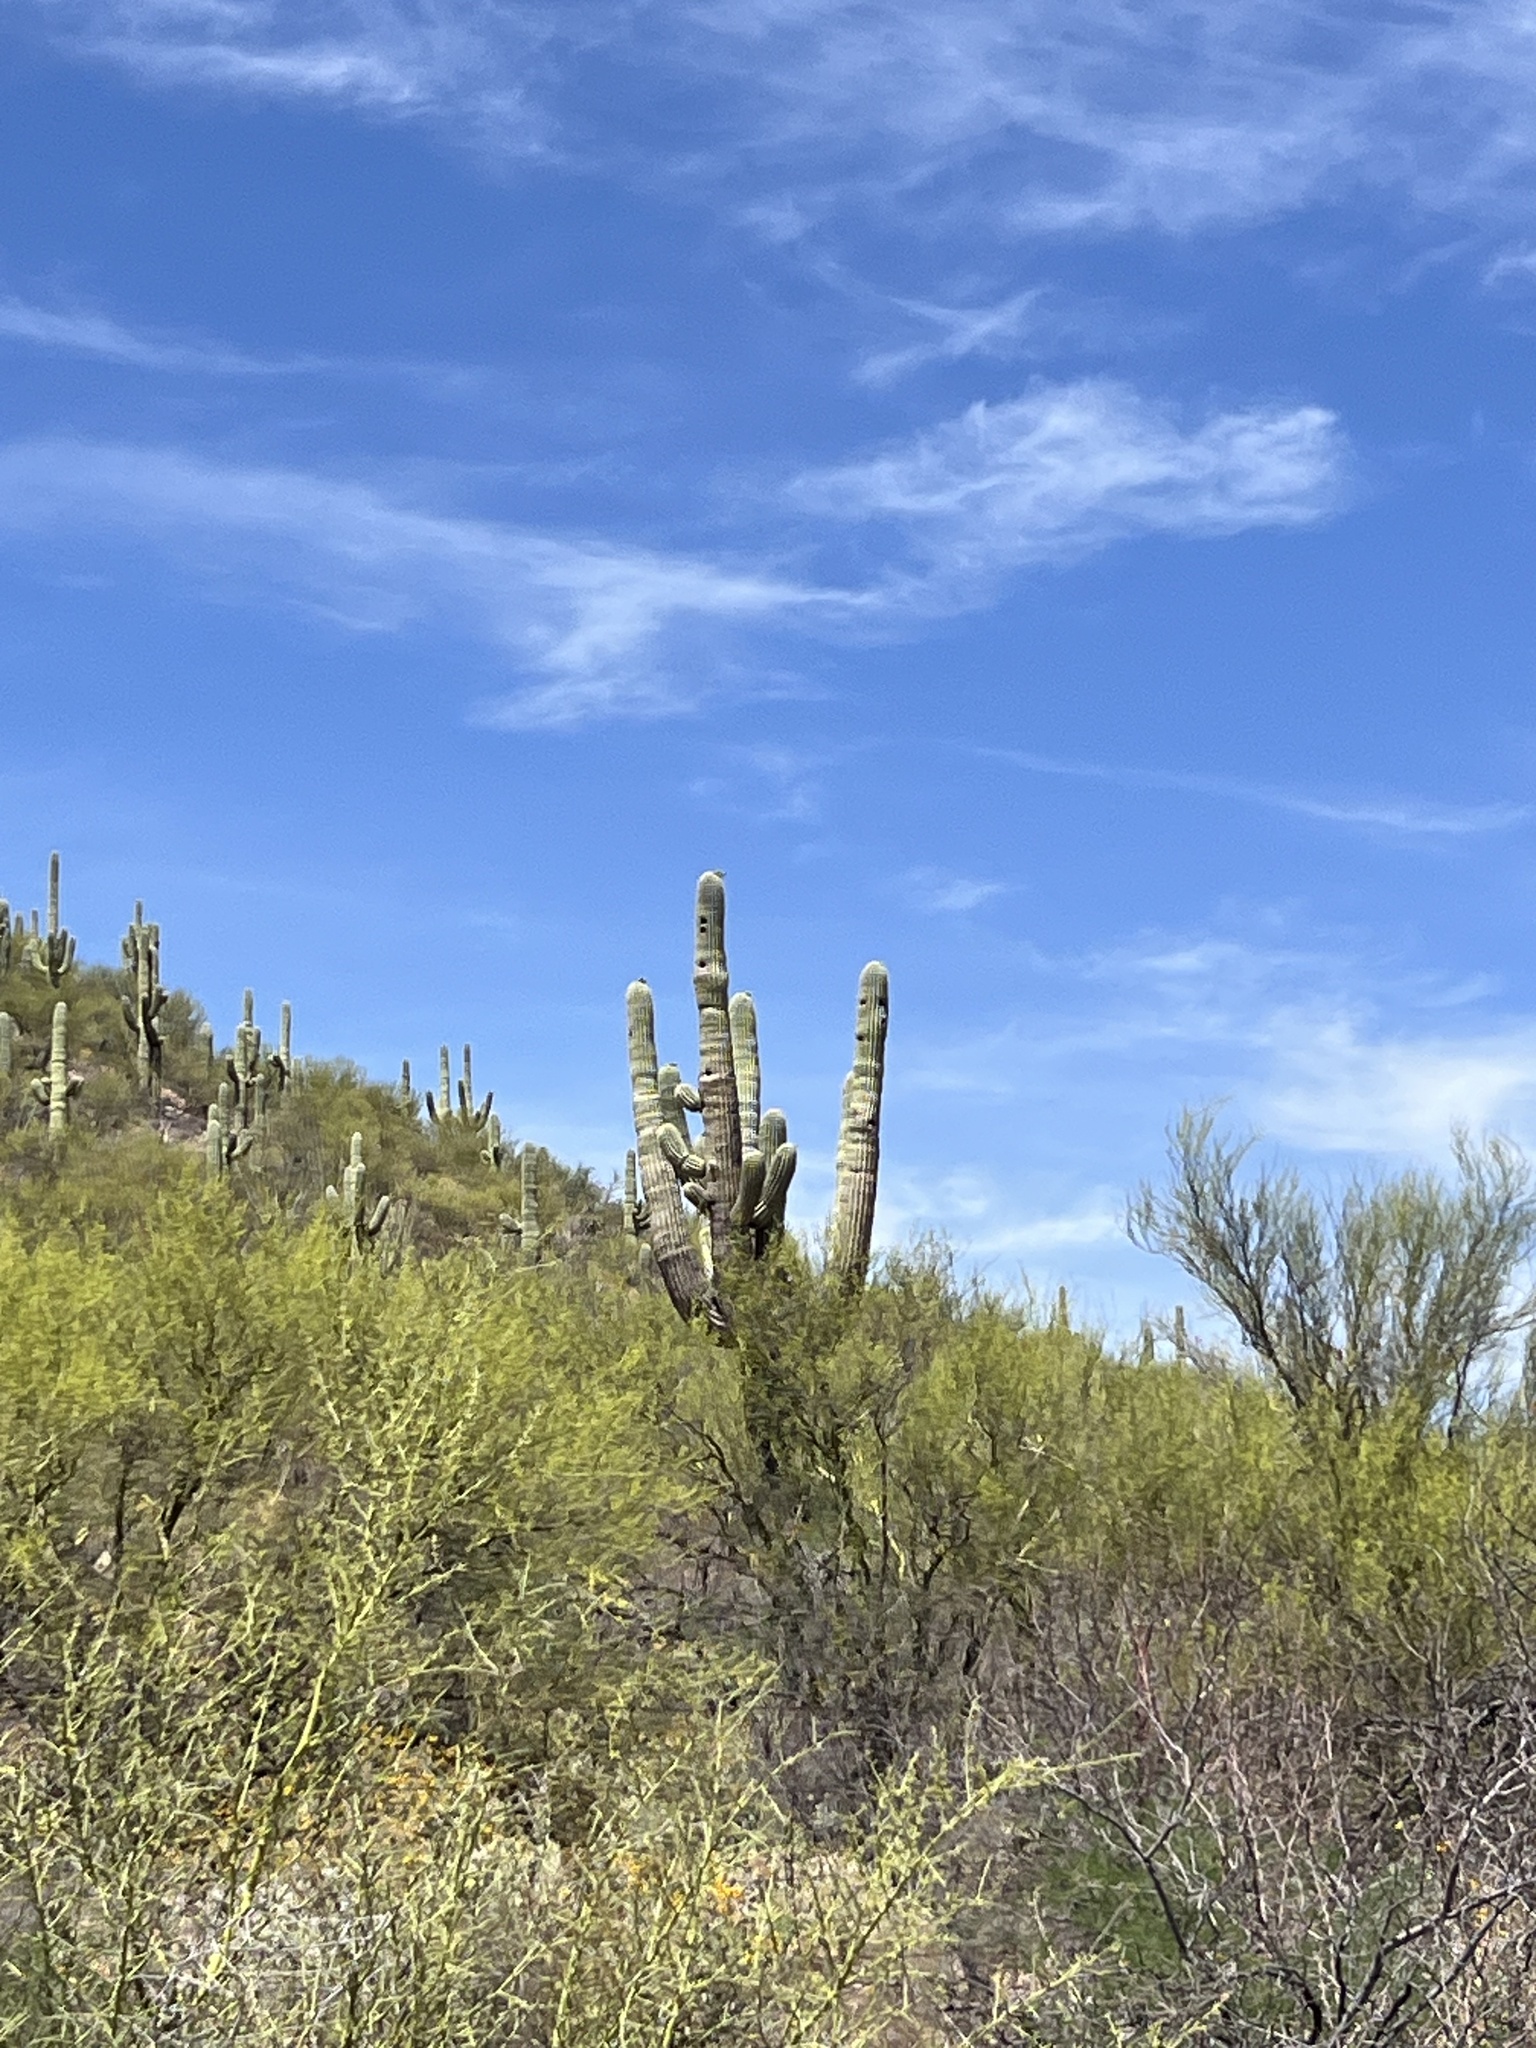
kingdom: Plantae
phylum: Tracheophyta
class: Magnoliopsida
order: Caryophyllales
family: Cactaceae
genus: Carnegiea
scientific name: Carnegiea gigantea
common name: Saguaro
